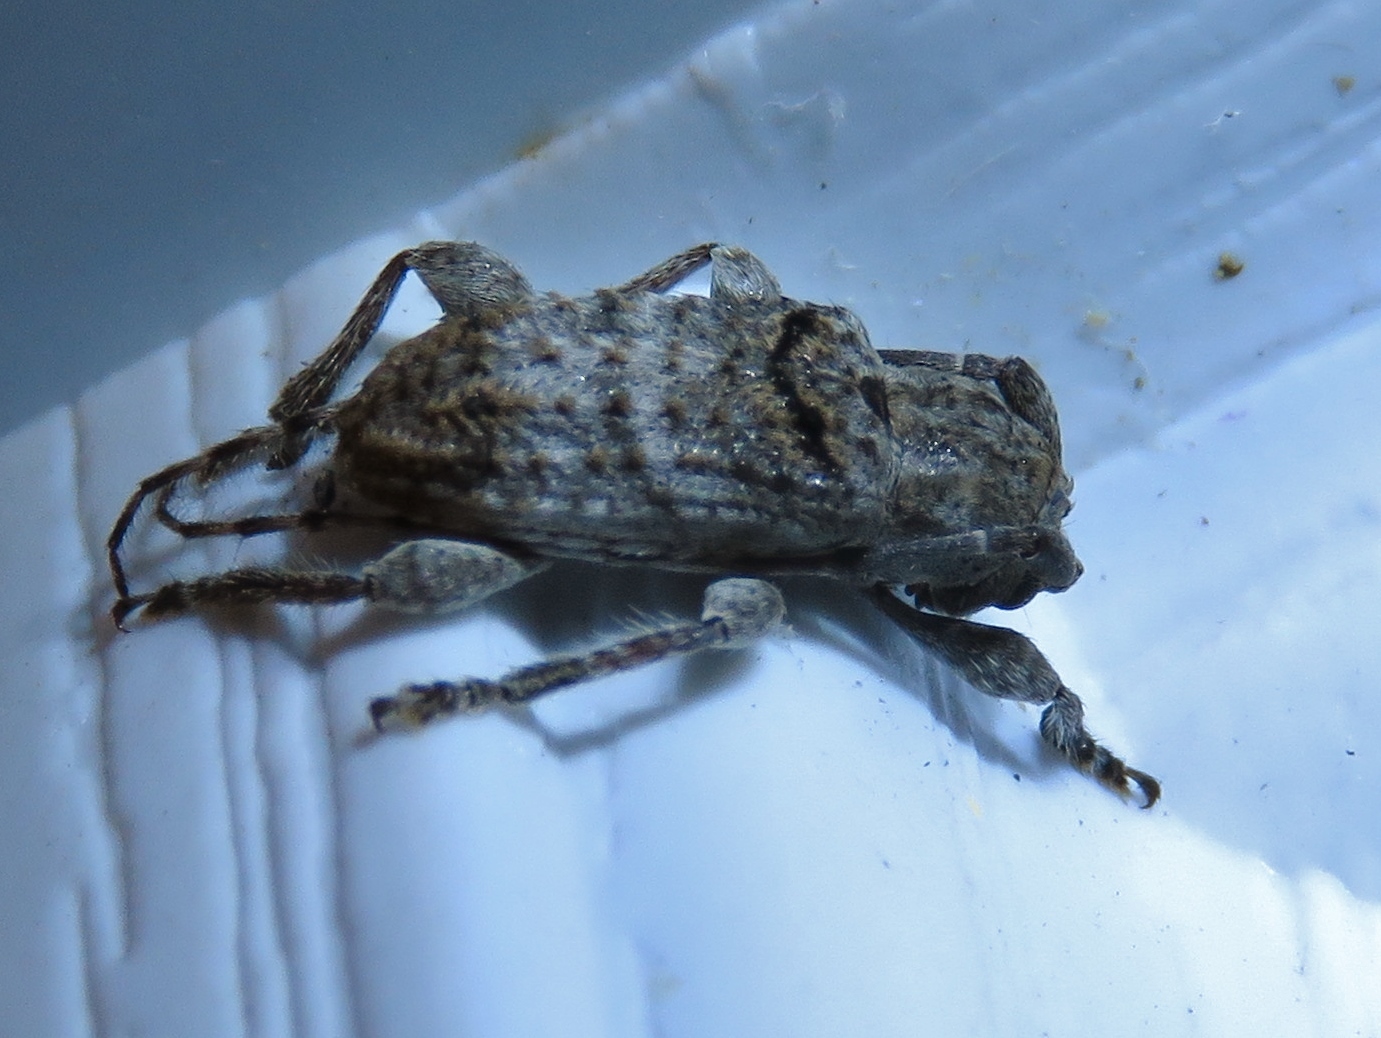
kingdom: Animalia
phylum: Arthropoda
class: Insecta
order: Coleoptera
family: Cerambycidae
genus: Ecyrus
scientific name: Ecyrus arcuatus
